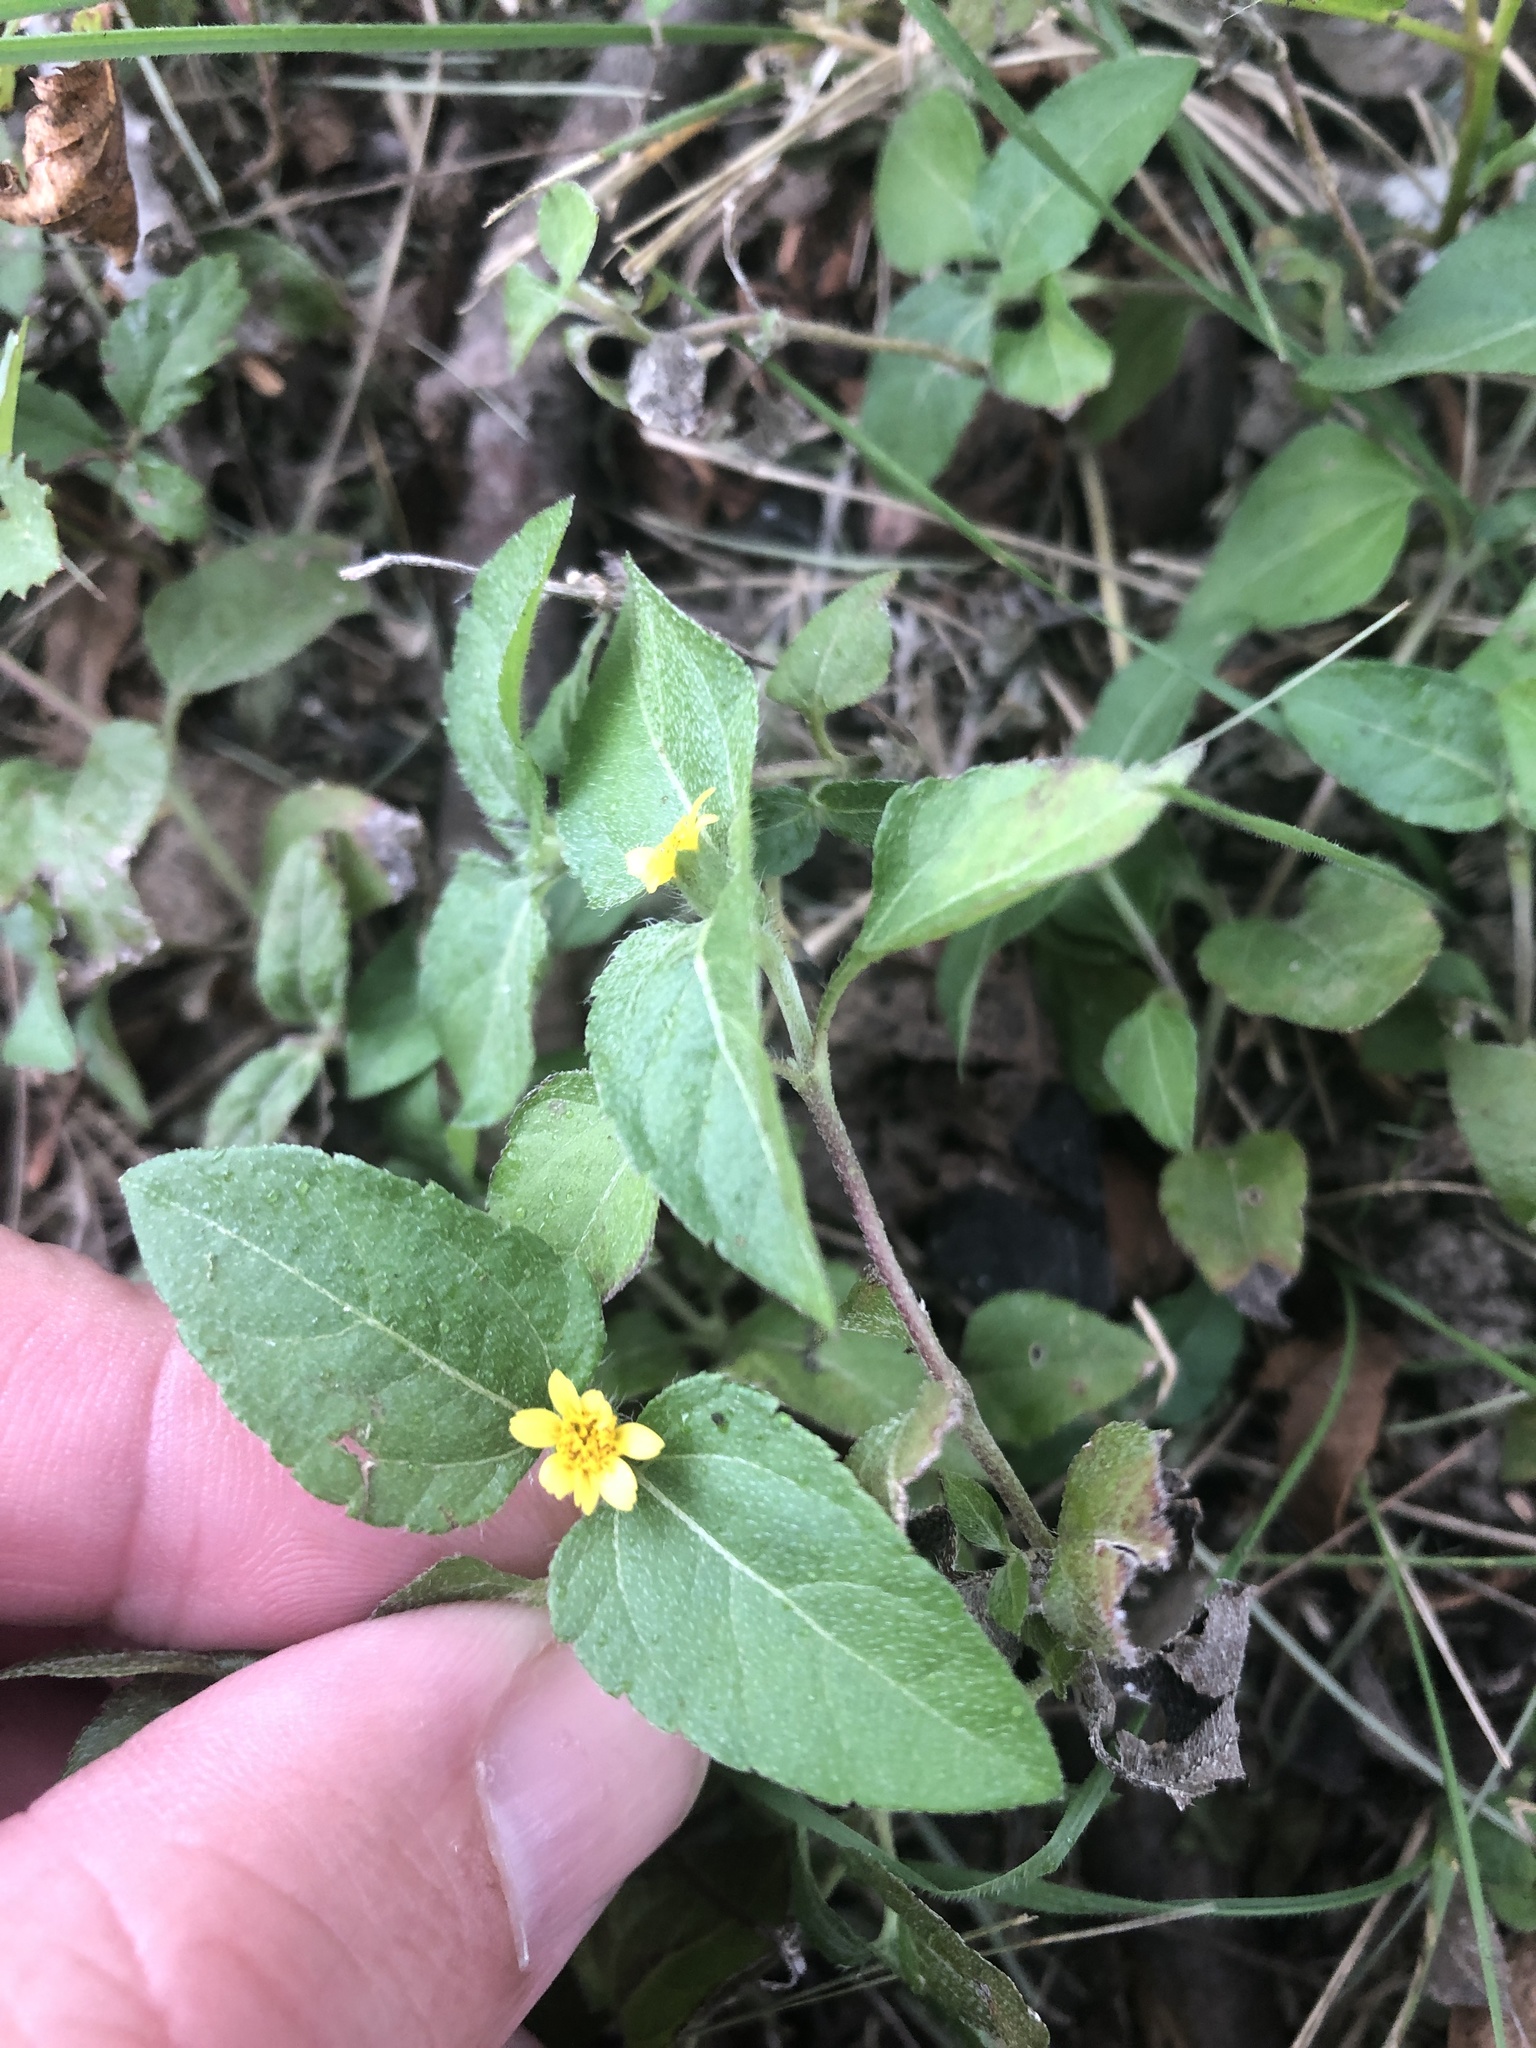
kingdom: Plantae
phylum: Tracheophyta
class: Magnoliopsida
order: Asterales
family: Asteraceae
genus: Calyptocarpus
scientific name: Calyptocarpus vialis
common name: Straggler daisy
